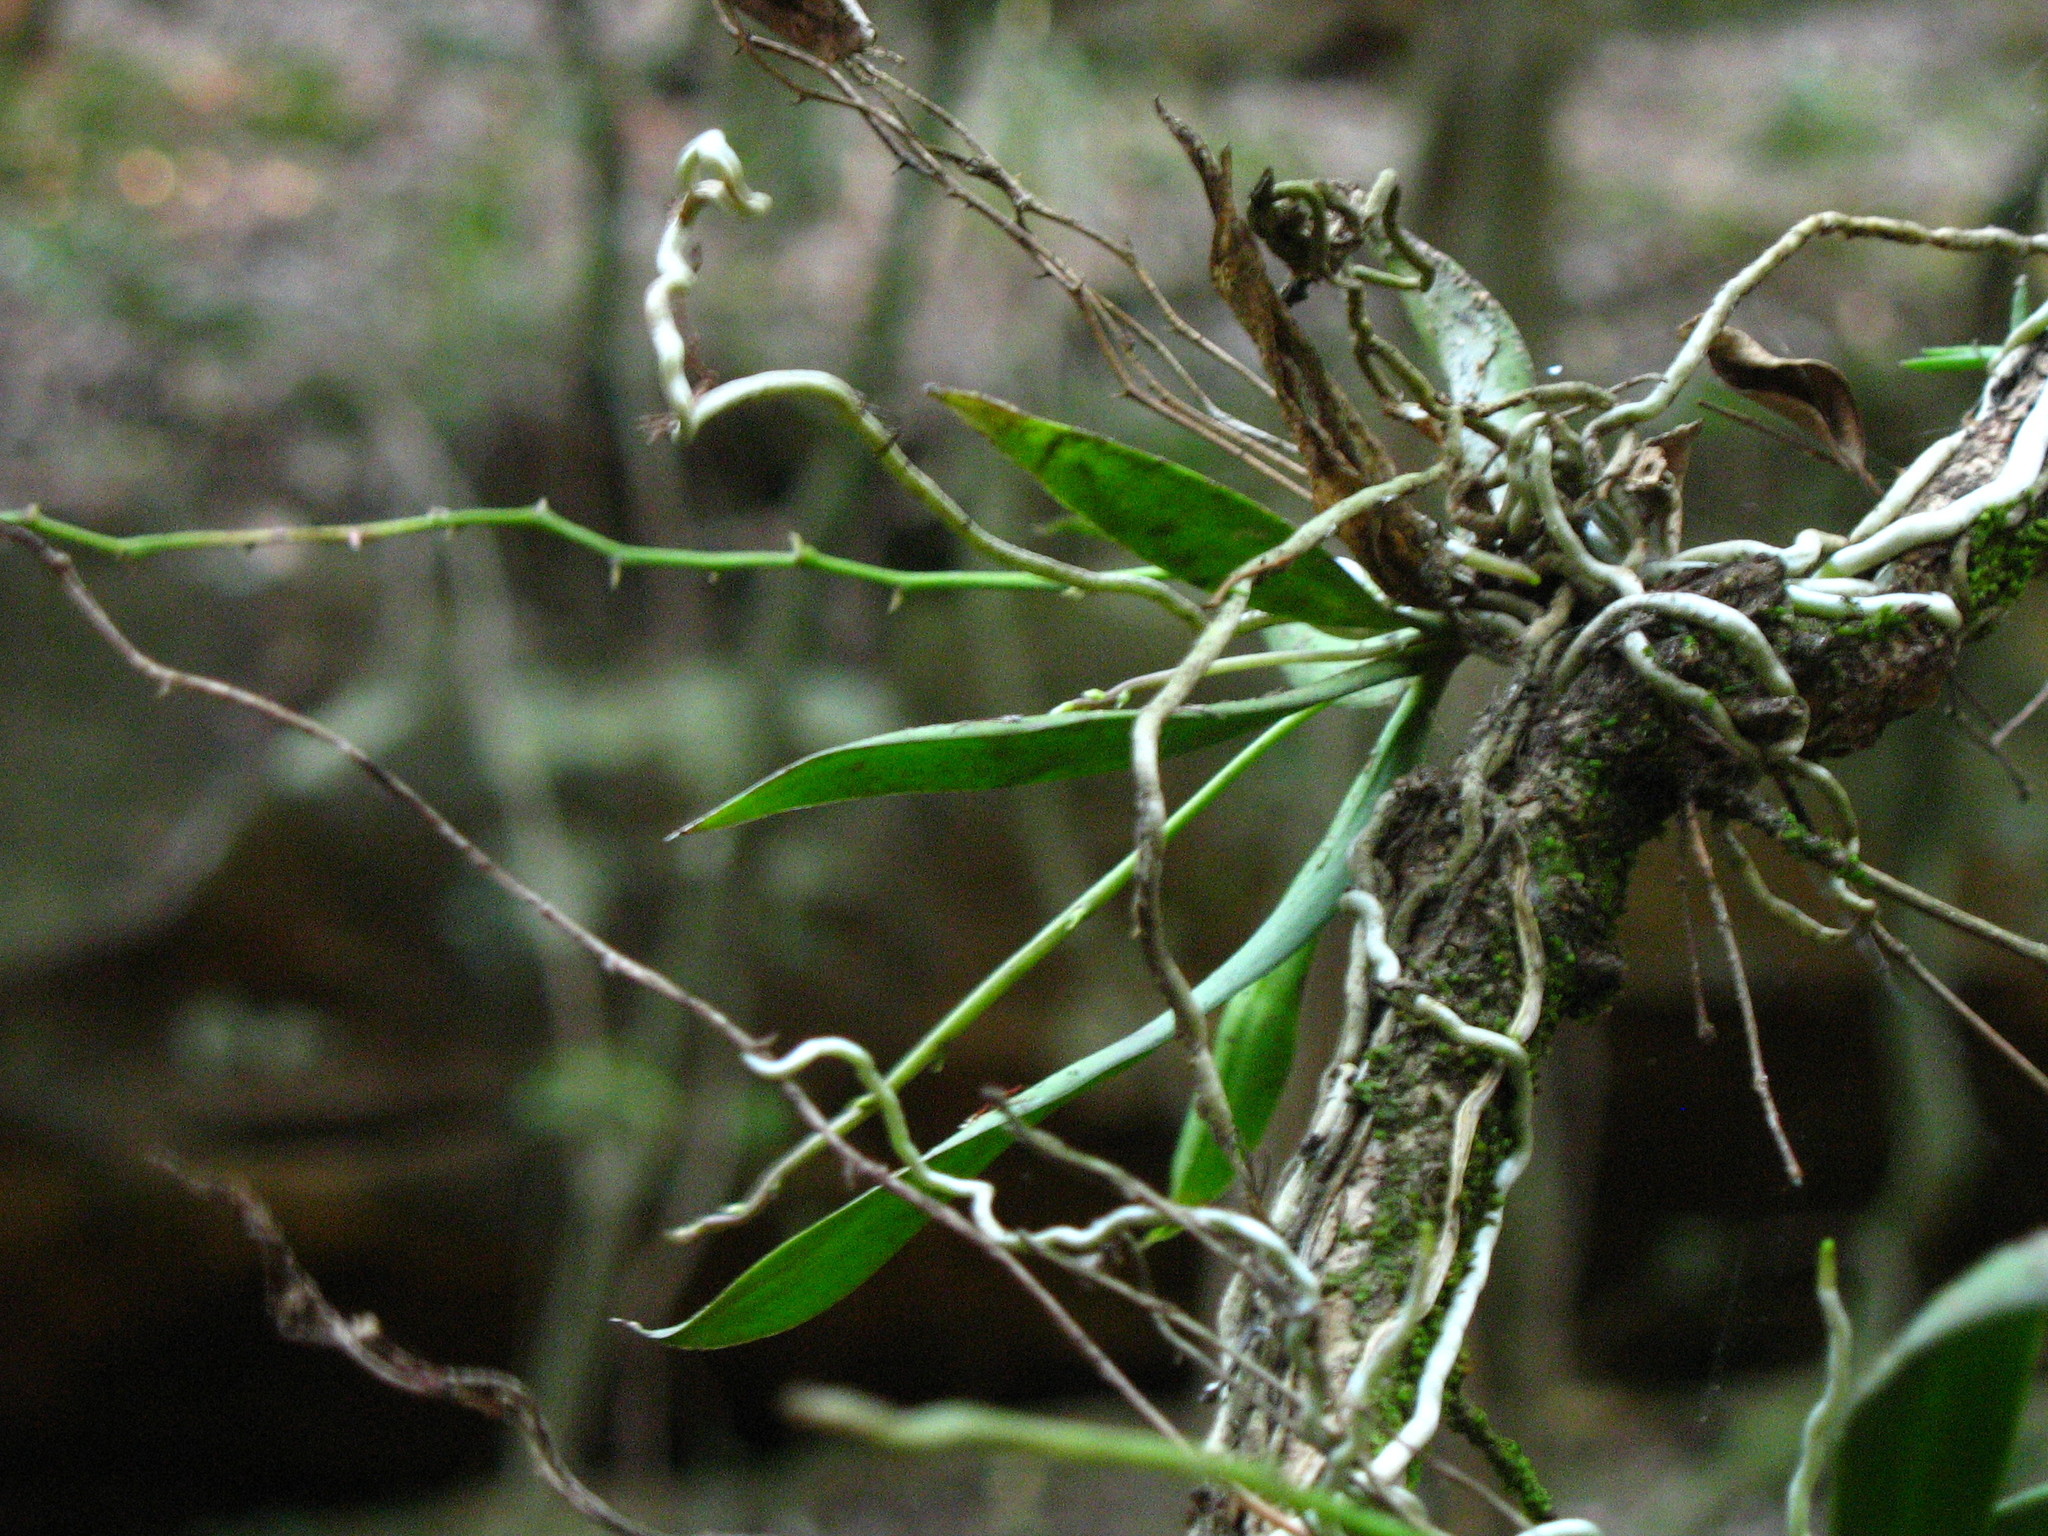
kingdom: Plantae
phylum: Tracheophyta
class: Liliopsida
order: Asparagales
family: Orchidaceae
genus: Sarcochilus
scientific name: Sarcochilus australis
